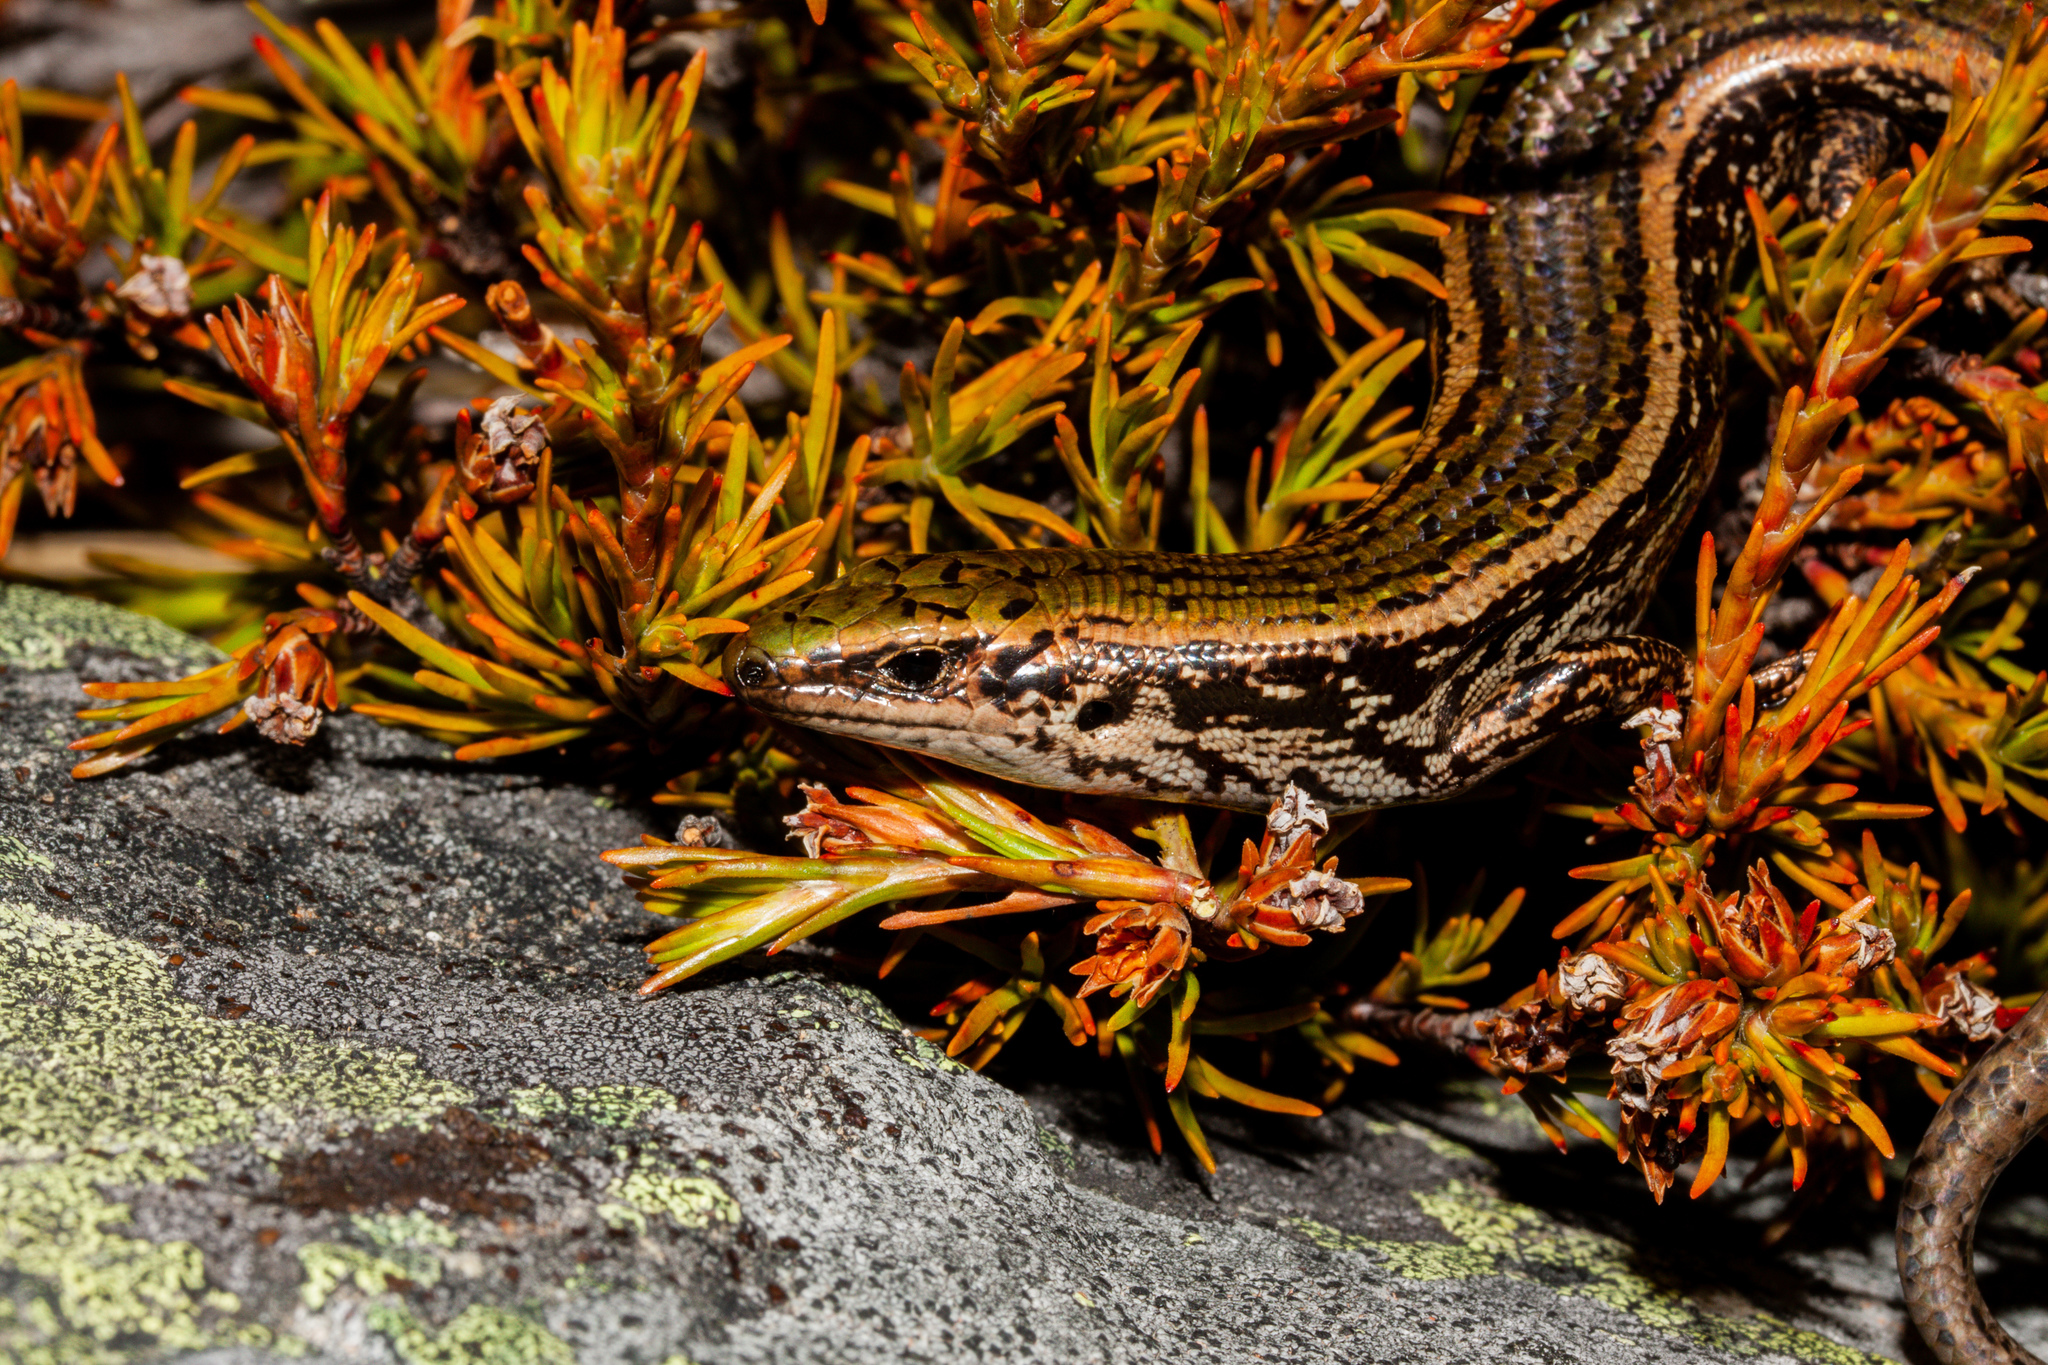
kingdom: Animalia
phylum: Chordata
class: Squamata
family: Scincidae
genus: Oligosoma
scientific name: Oligosoma chloronoton
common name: Green skink
